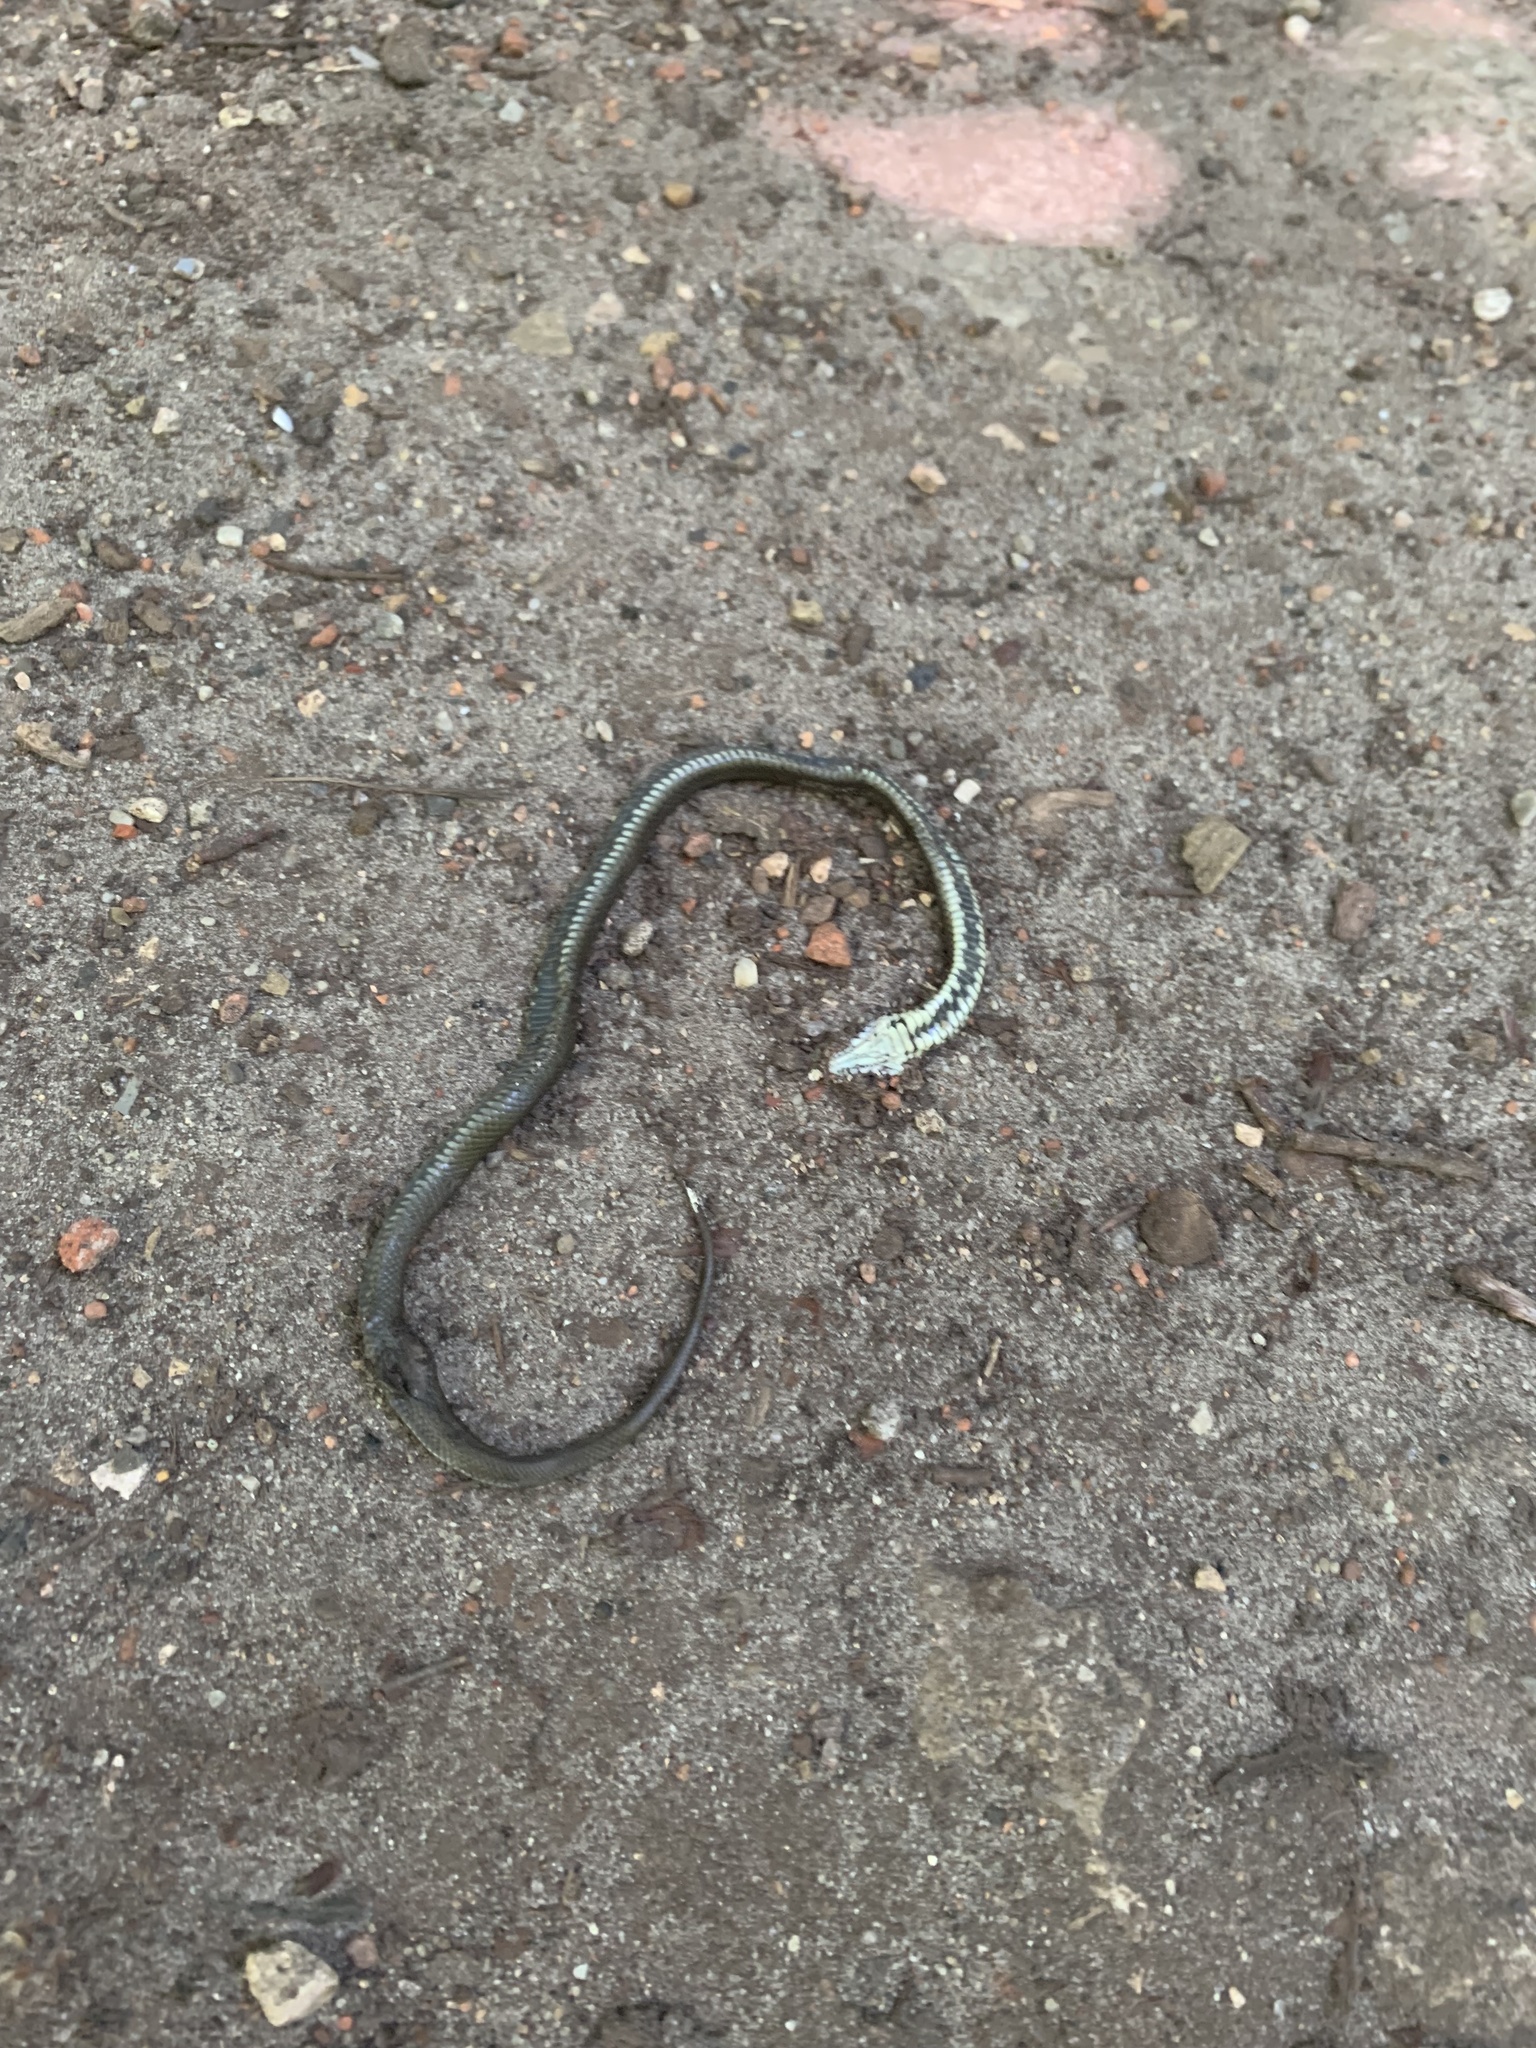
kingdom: Animalia
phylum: Chordata
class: Squamata
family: Colubridae
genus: Natrix
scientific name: Natrix natrix
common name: Grass snake
